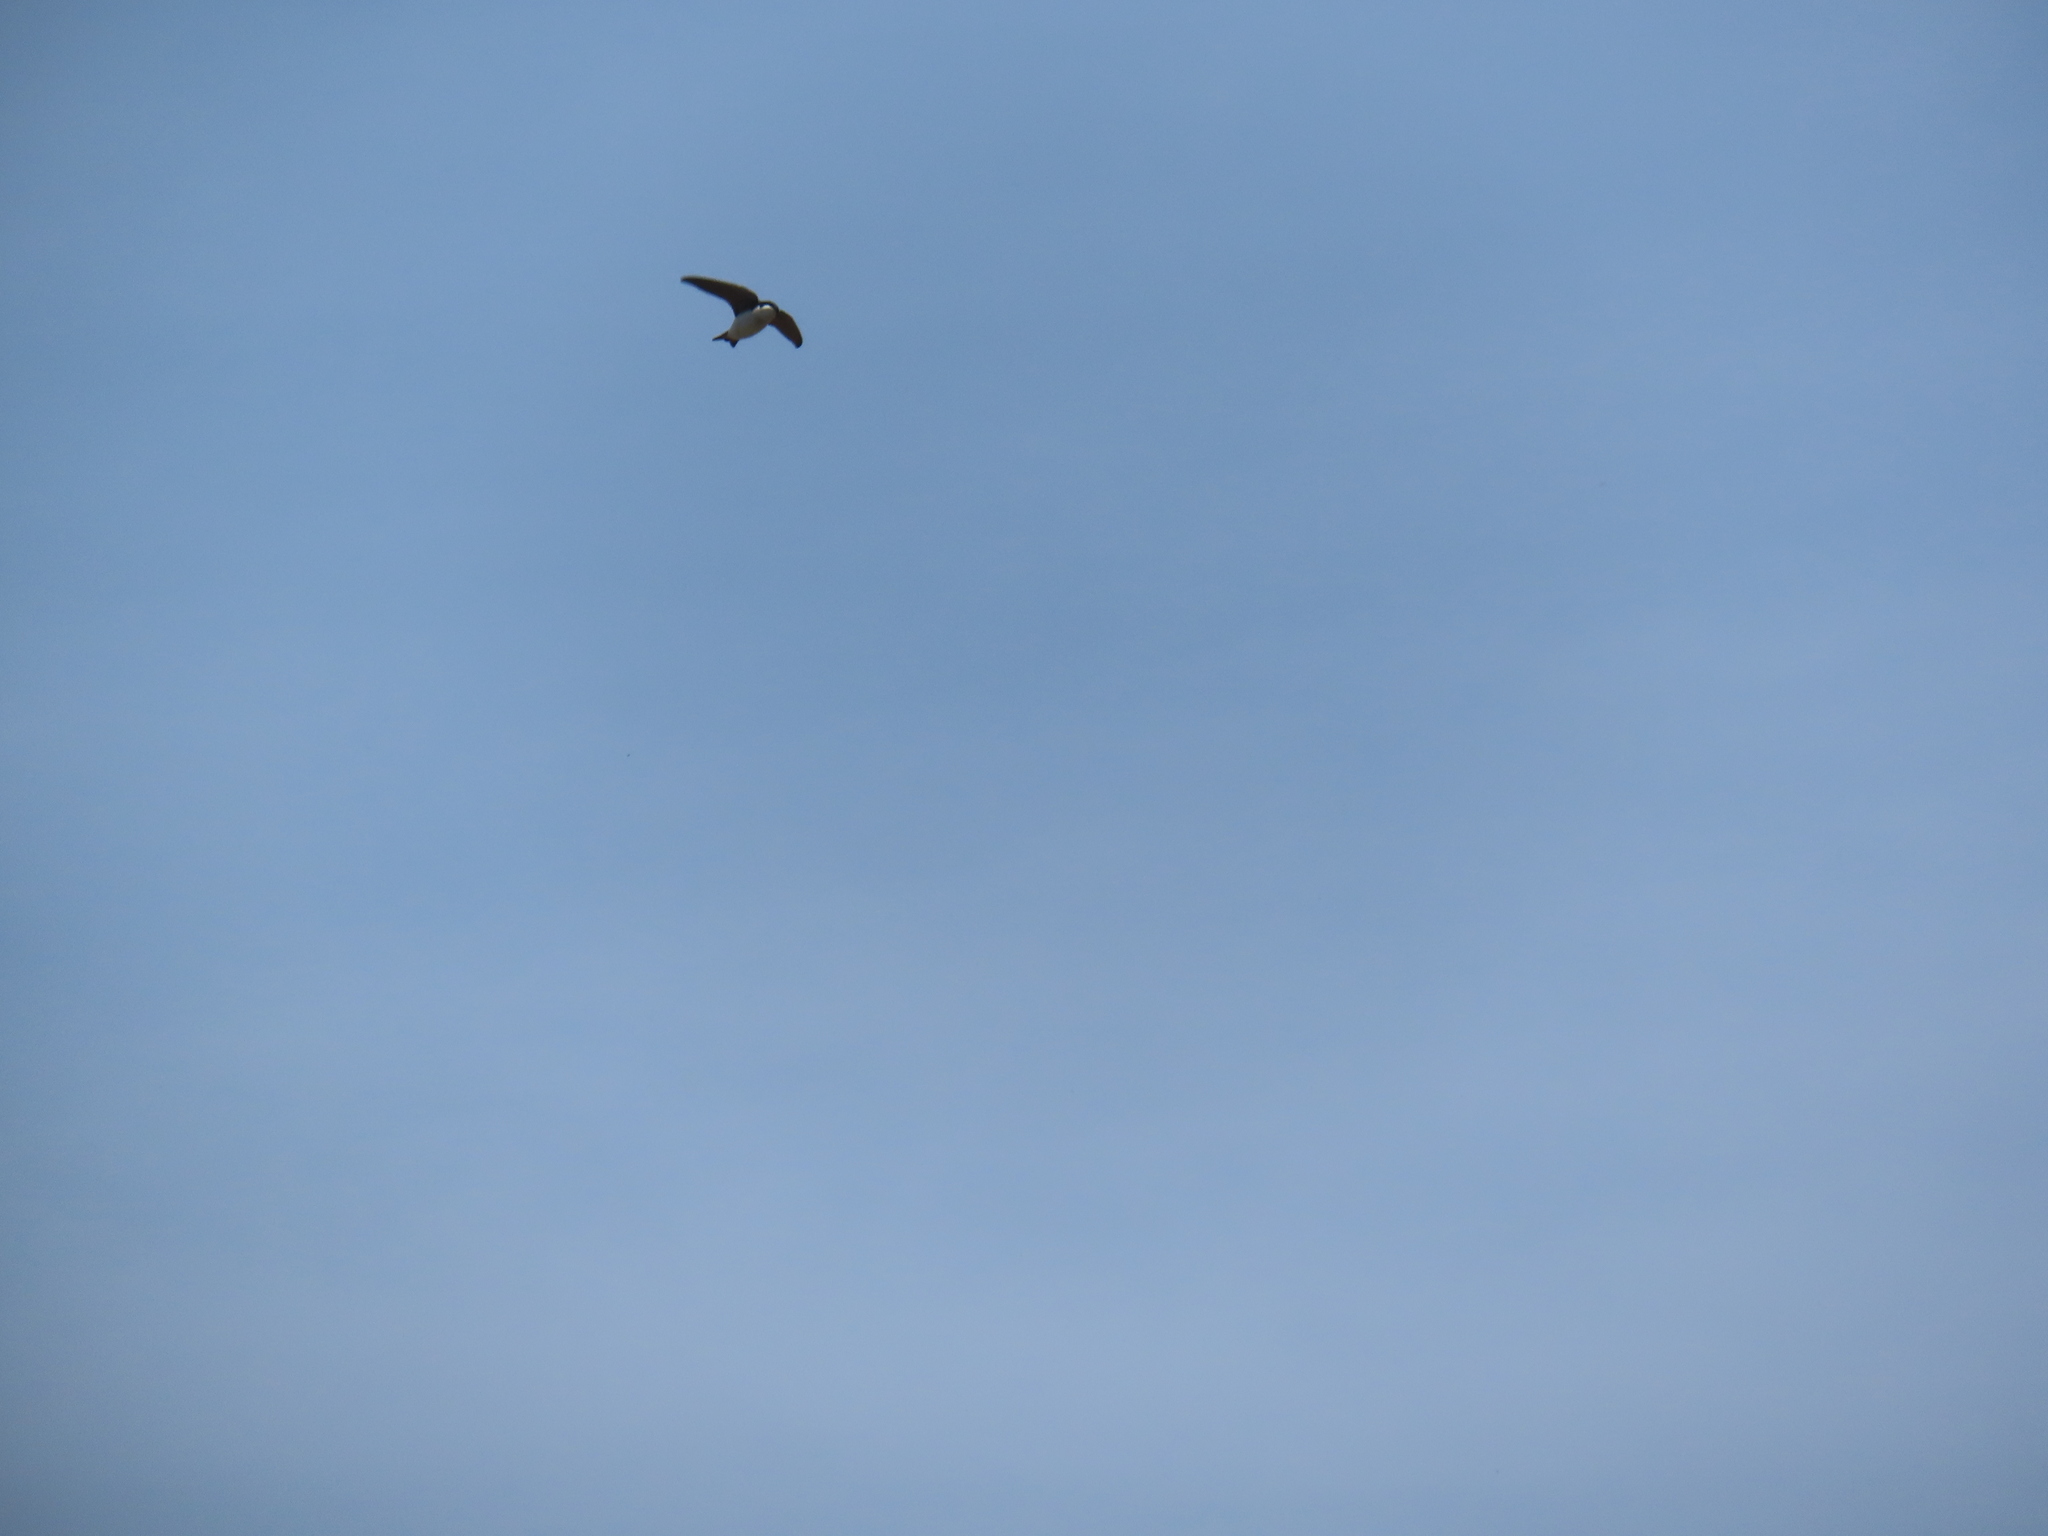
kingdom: Animalia
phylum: Chordata
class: Aves
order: Passeriformes
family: Hirundinidae
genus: Tachycineta
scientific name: Tachycineta bicolor
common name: Tree swallow
